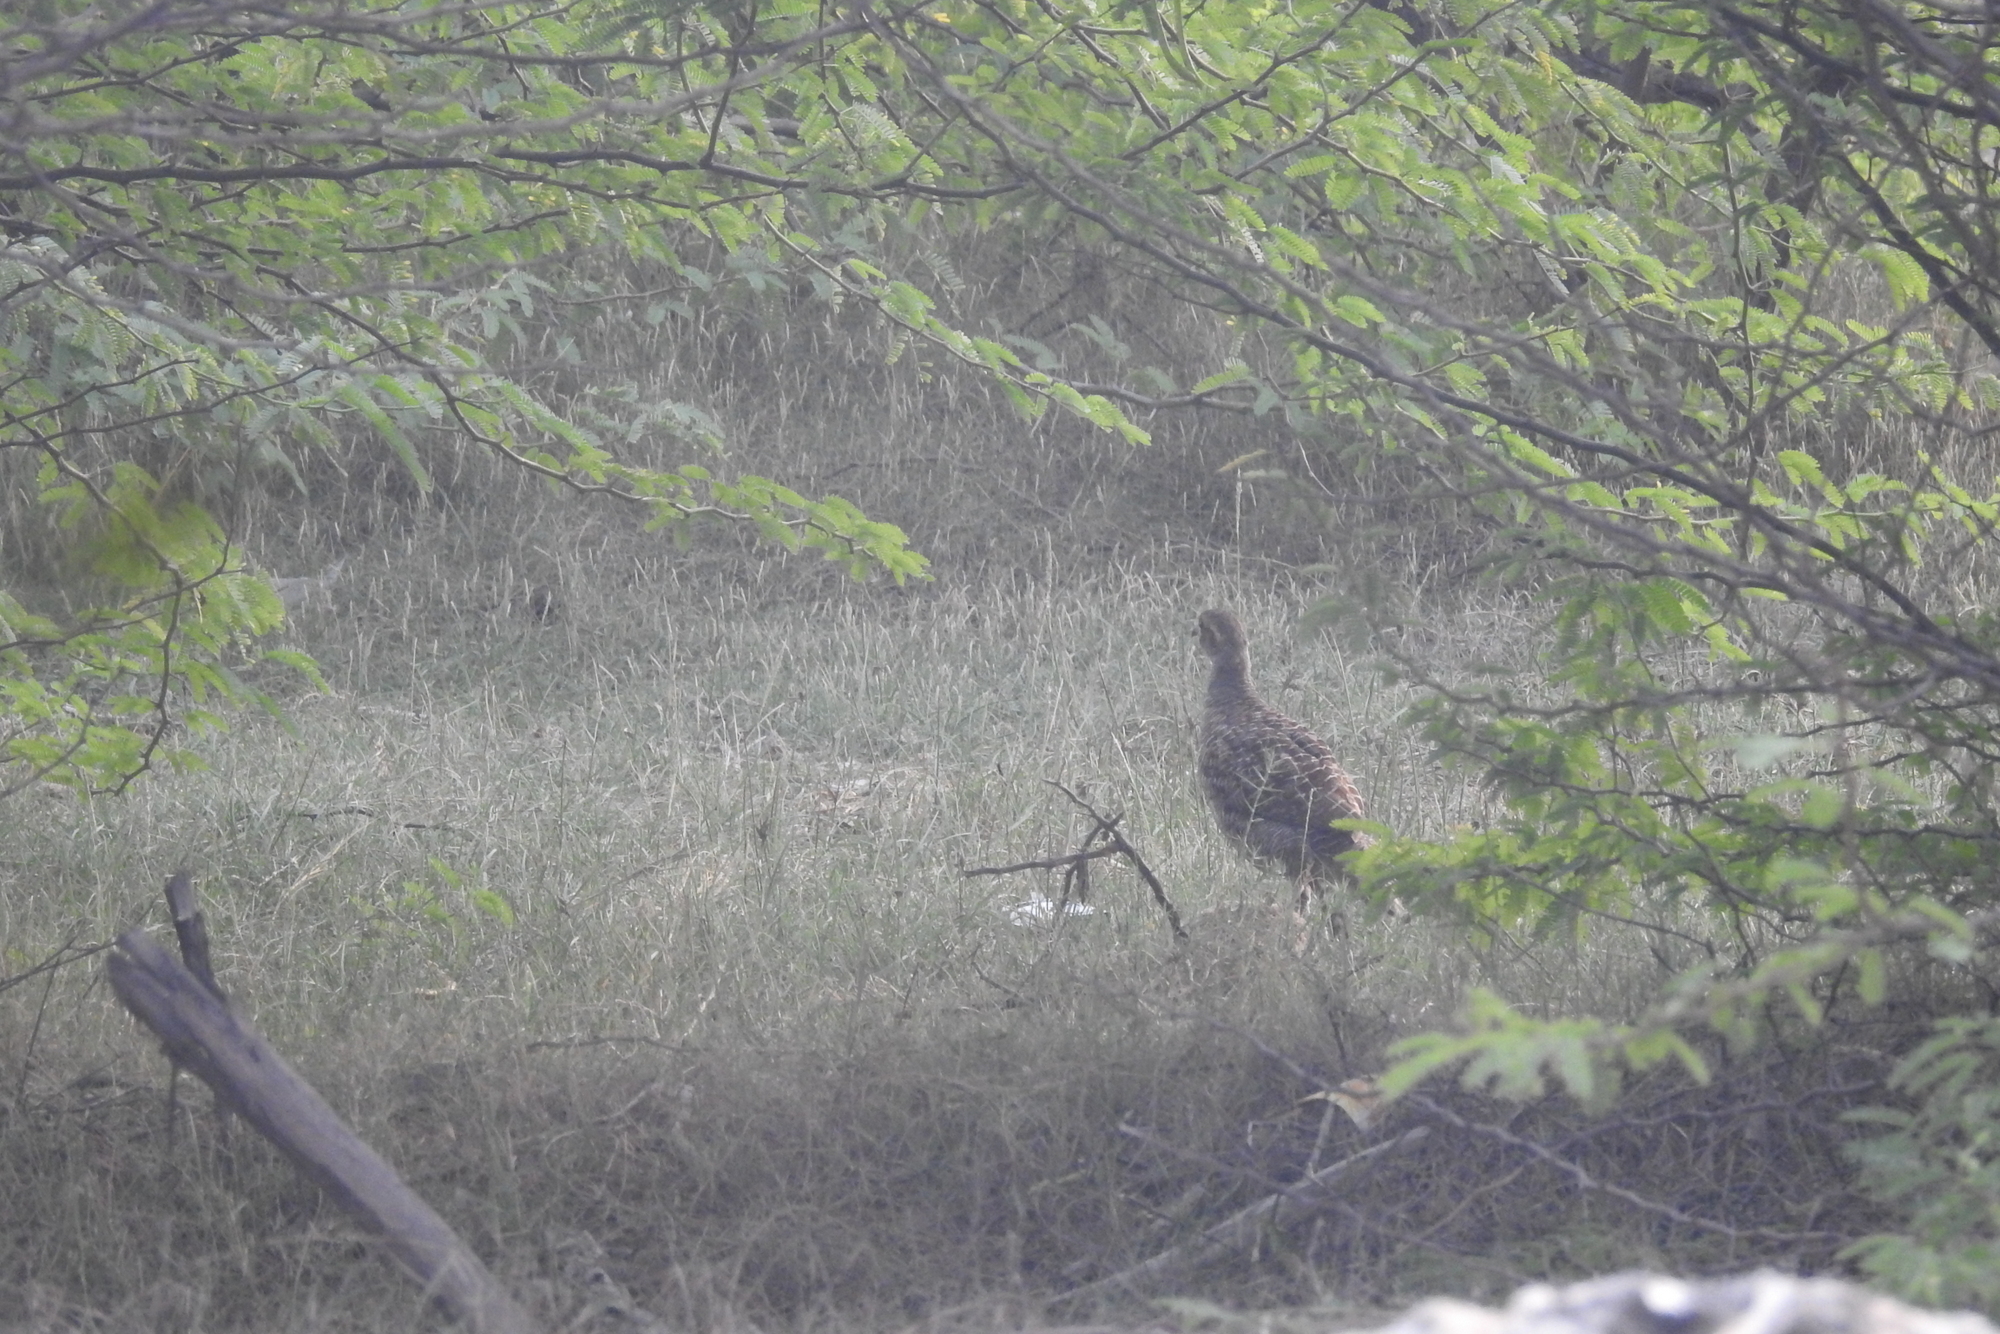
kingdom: Animalia
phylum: Chordata
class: Aves
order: Galliformes
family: Phasianidae
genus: Ortygornis
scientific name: Ortygornis pondicerianus
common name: Grey francolin
